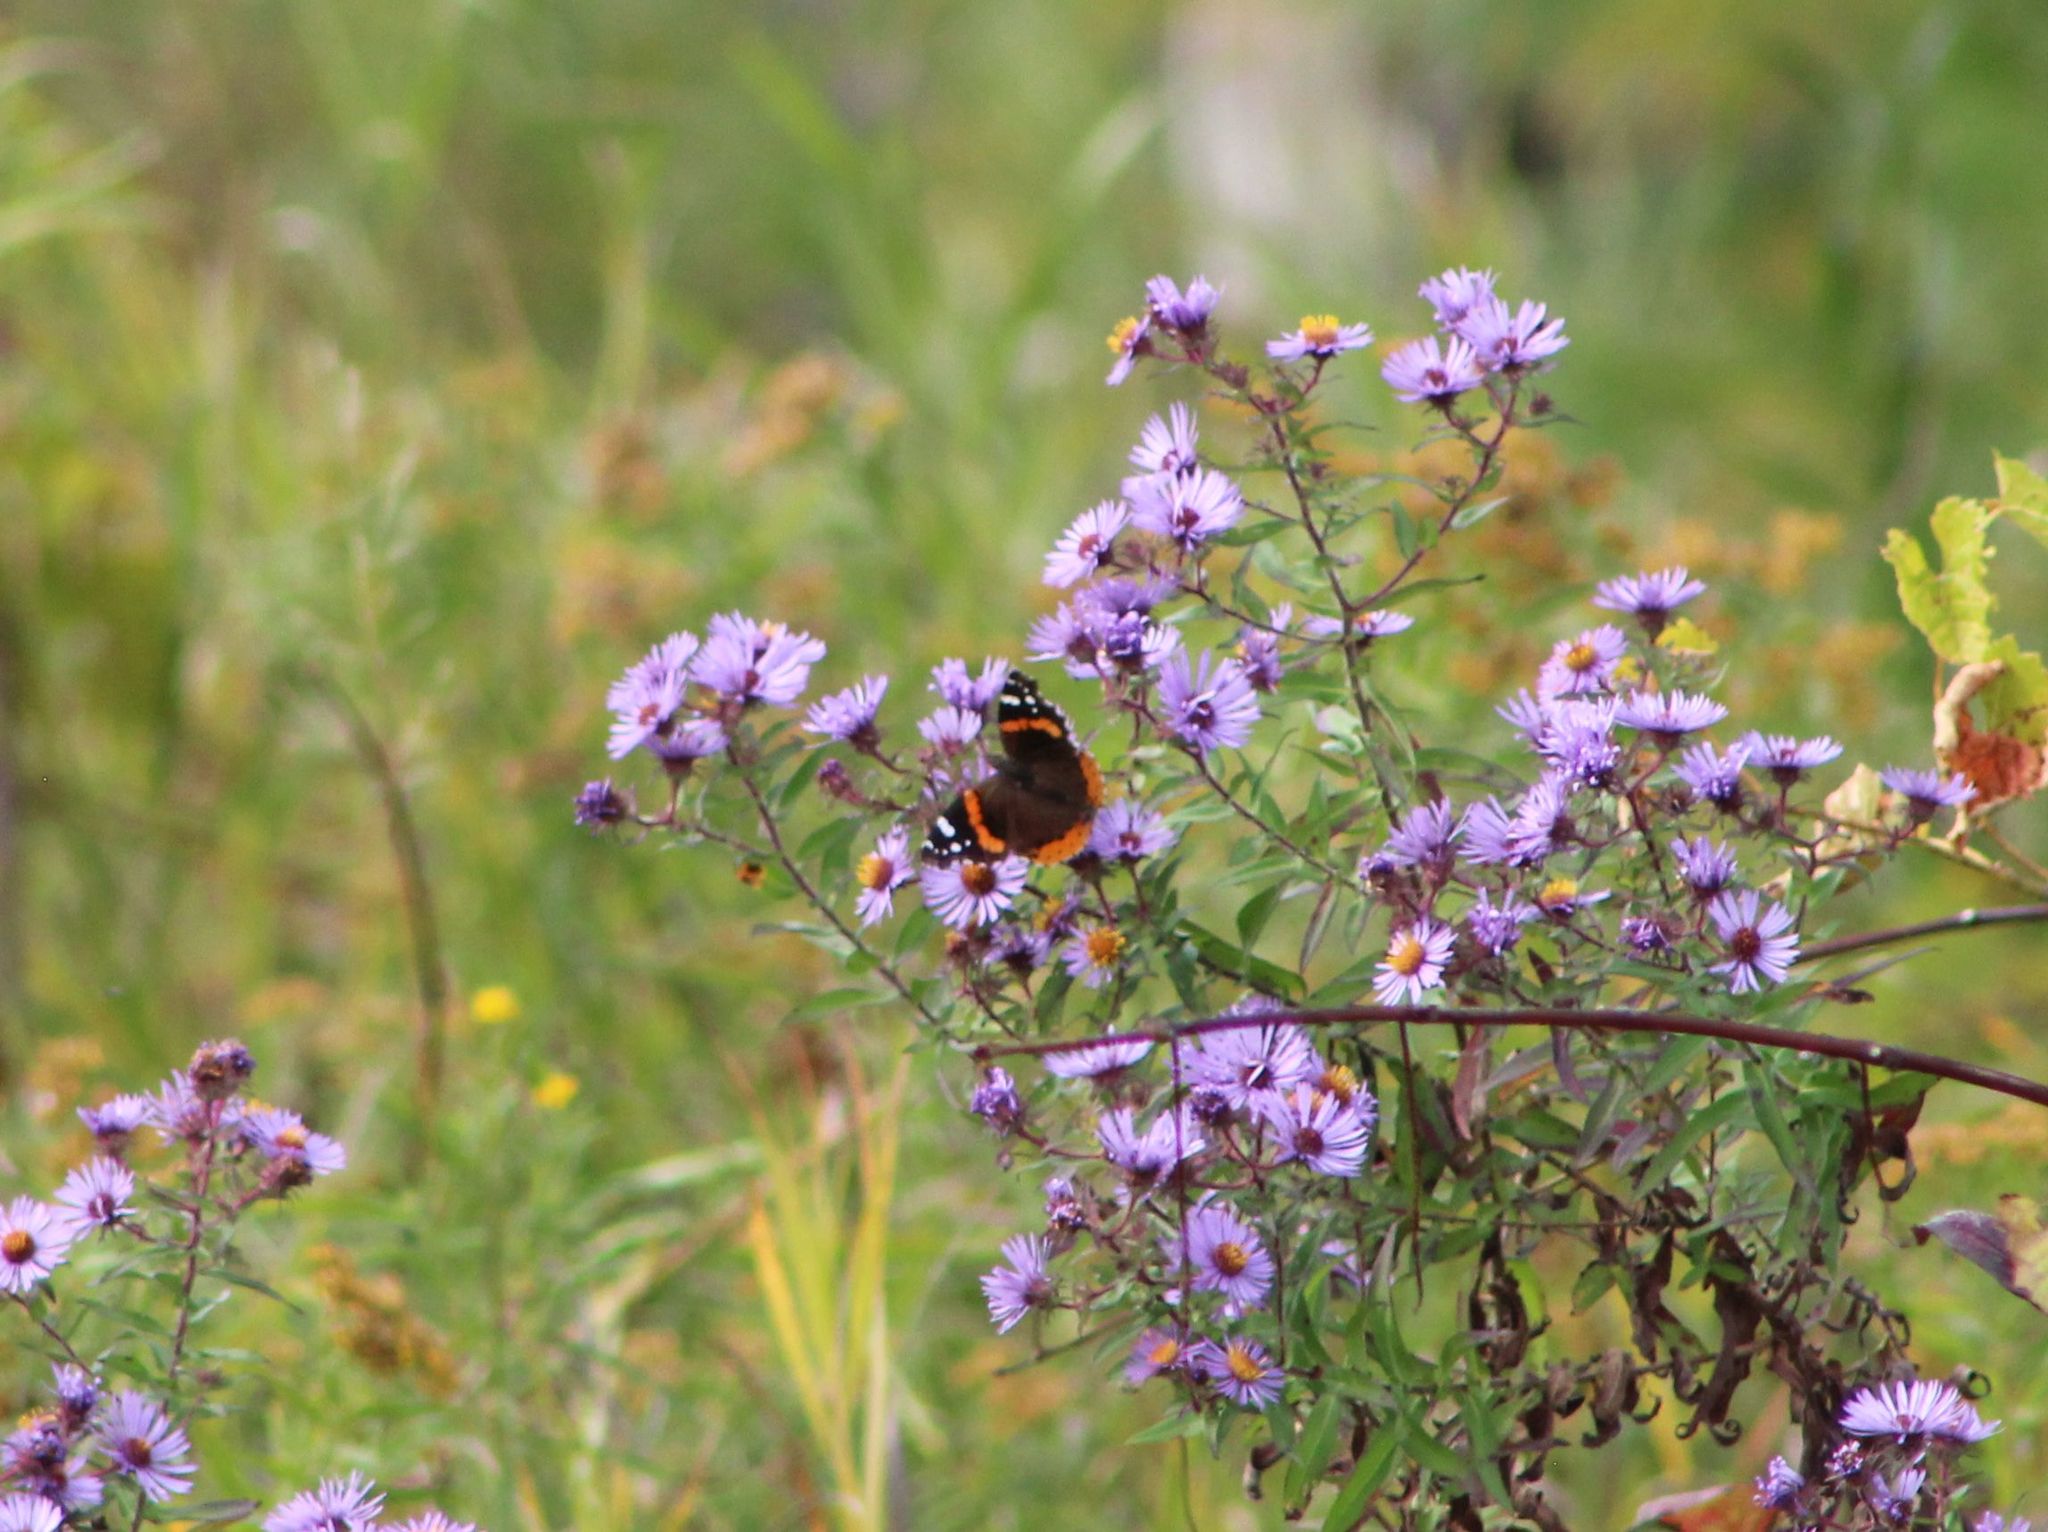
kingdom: Animalia
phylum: Arthropoda
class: Insecta
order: Lepidoptera
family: Nymphalidae
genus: Vanessa
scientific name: Vanessa atalanta
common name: Red admiral
